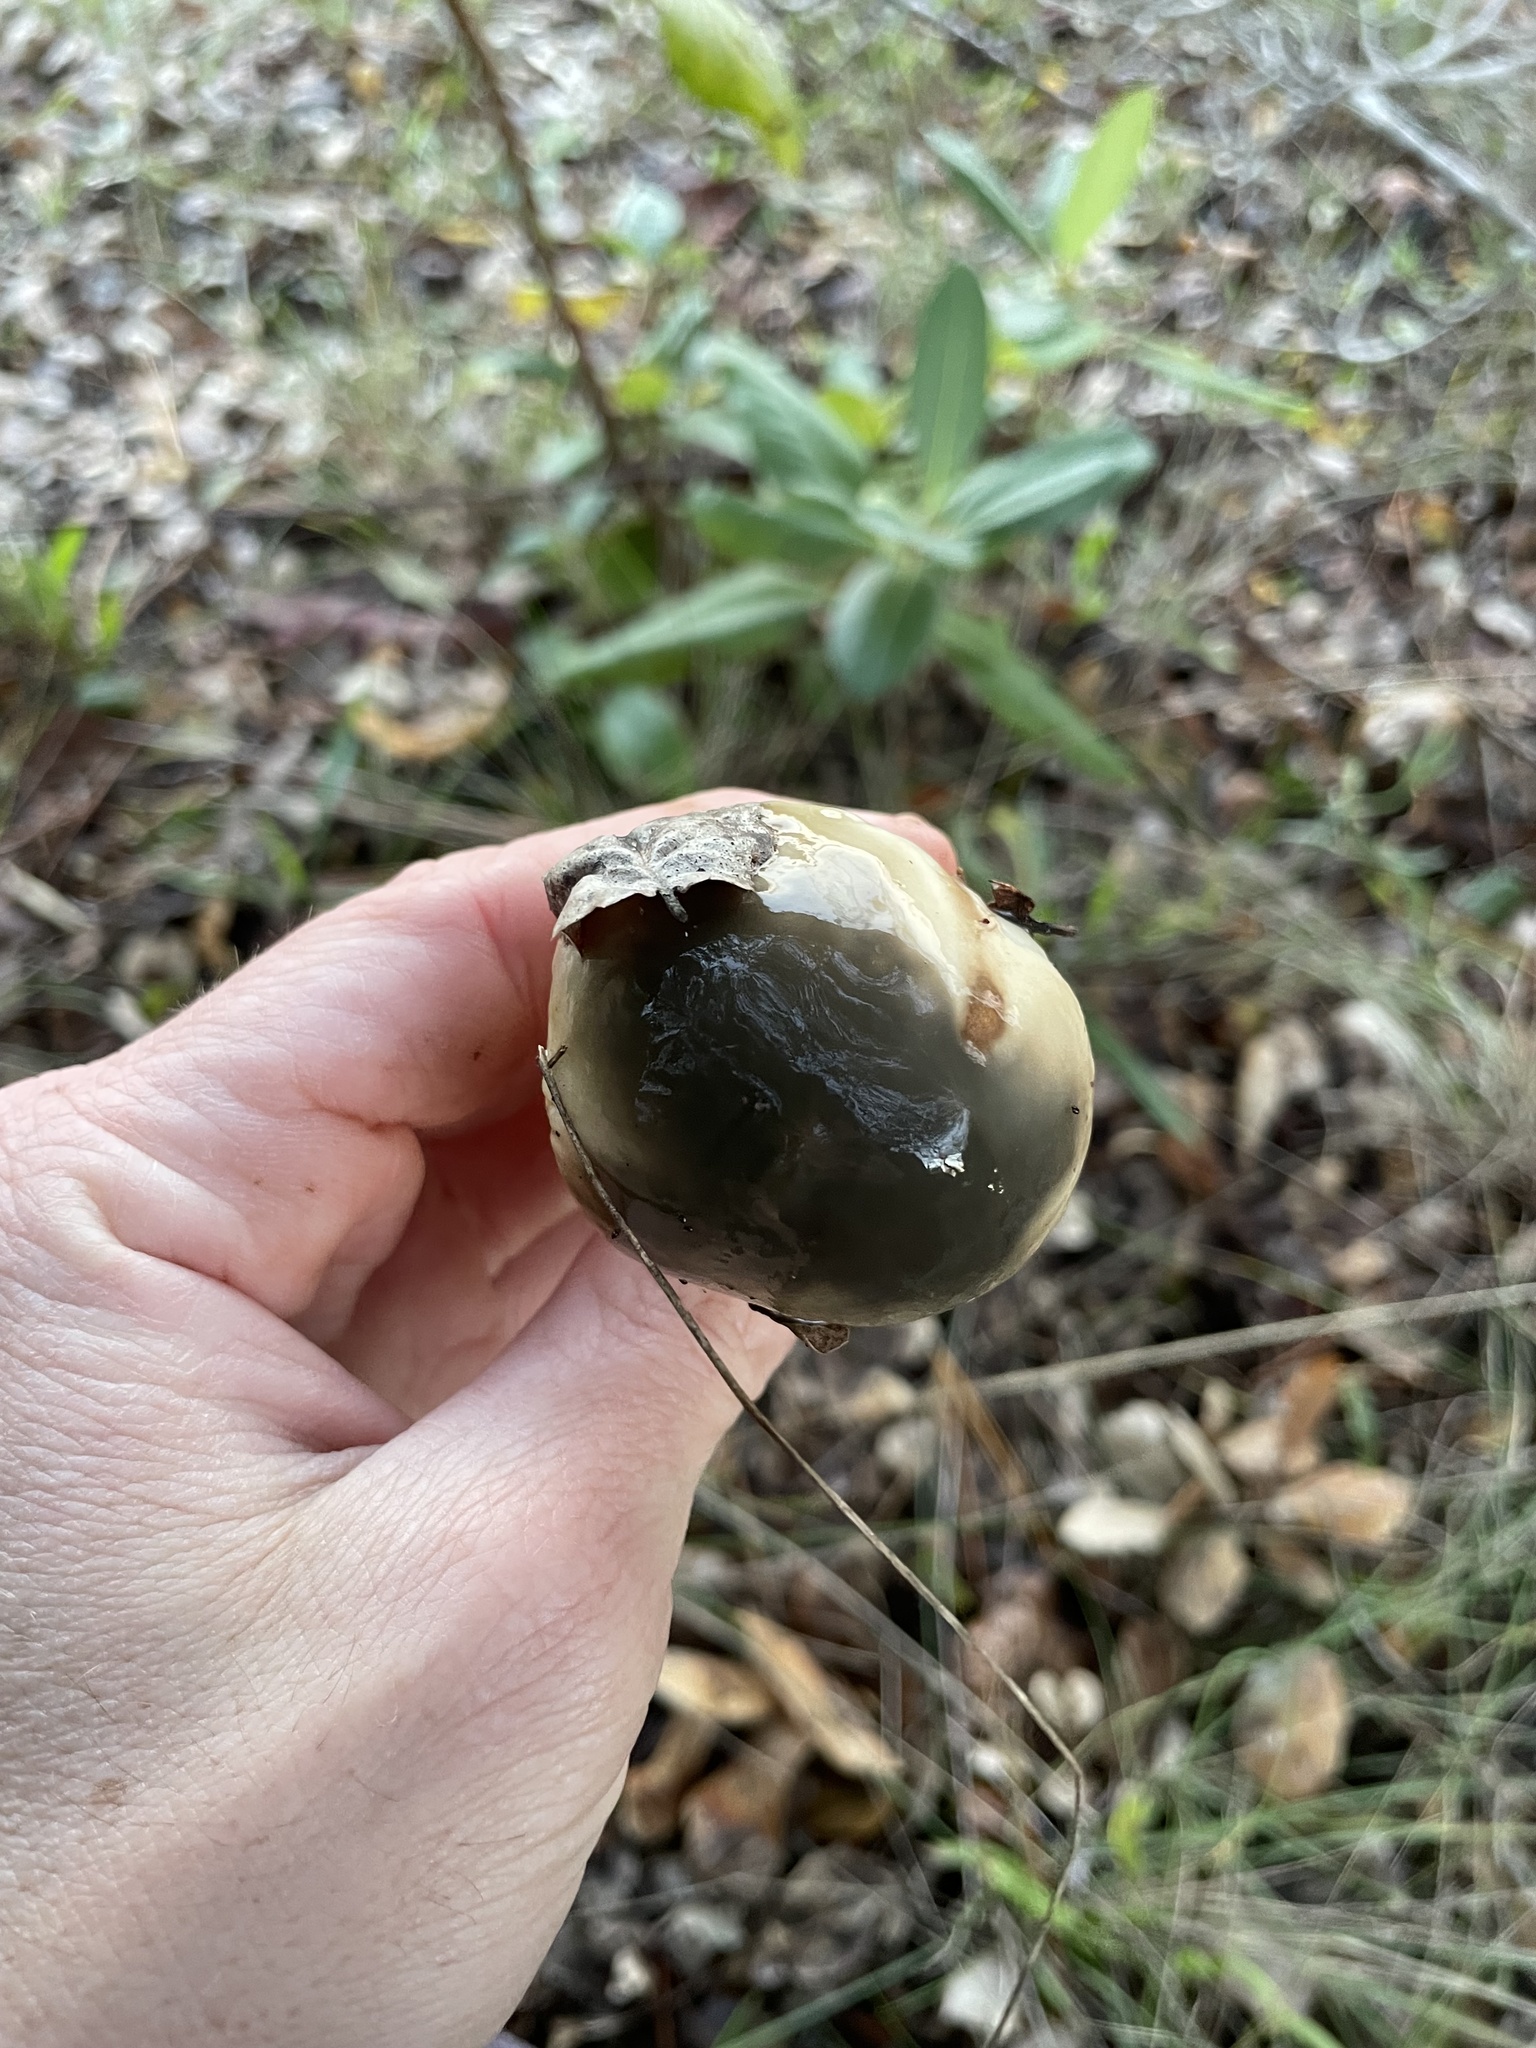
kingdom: Fungi
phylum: Basidiomycota
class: Agaricomycetes
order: Boletales
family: Suillaceae
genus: Suillus
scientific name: Suillus pungens
